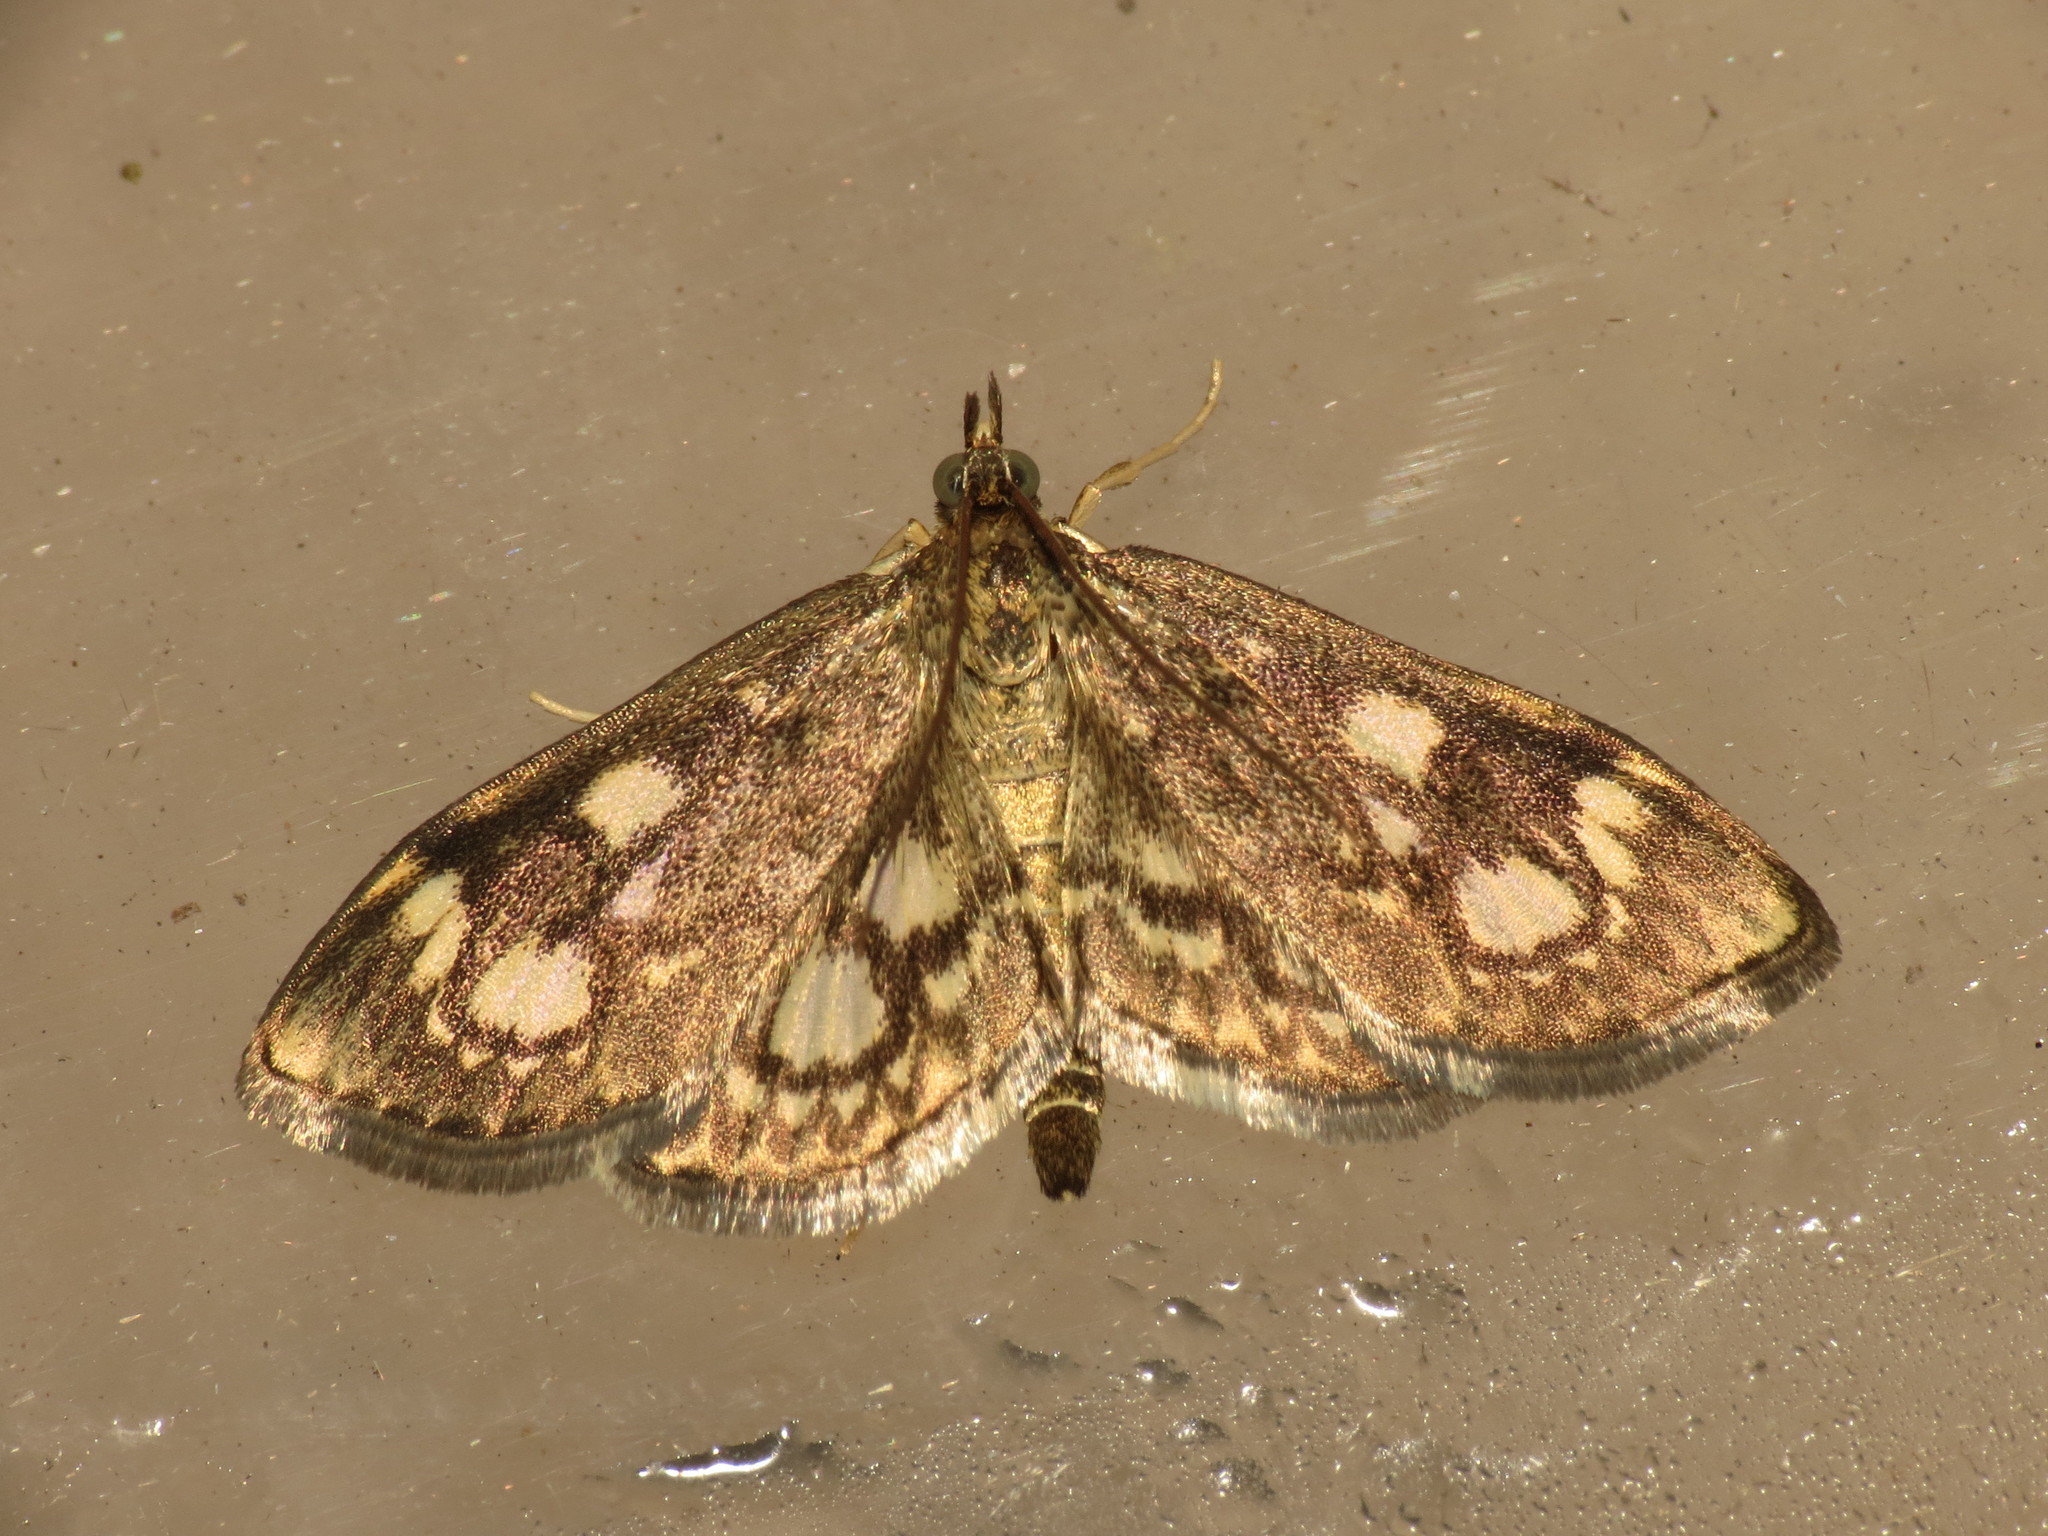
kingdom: Animalia
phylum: Arthropoda
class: Insecta
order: Lepidoptera
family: Crambidae
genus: Anania
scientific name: Anania coronata
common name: Elder pearl
